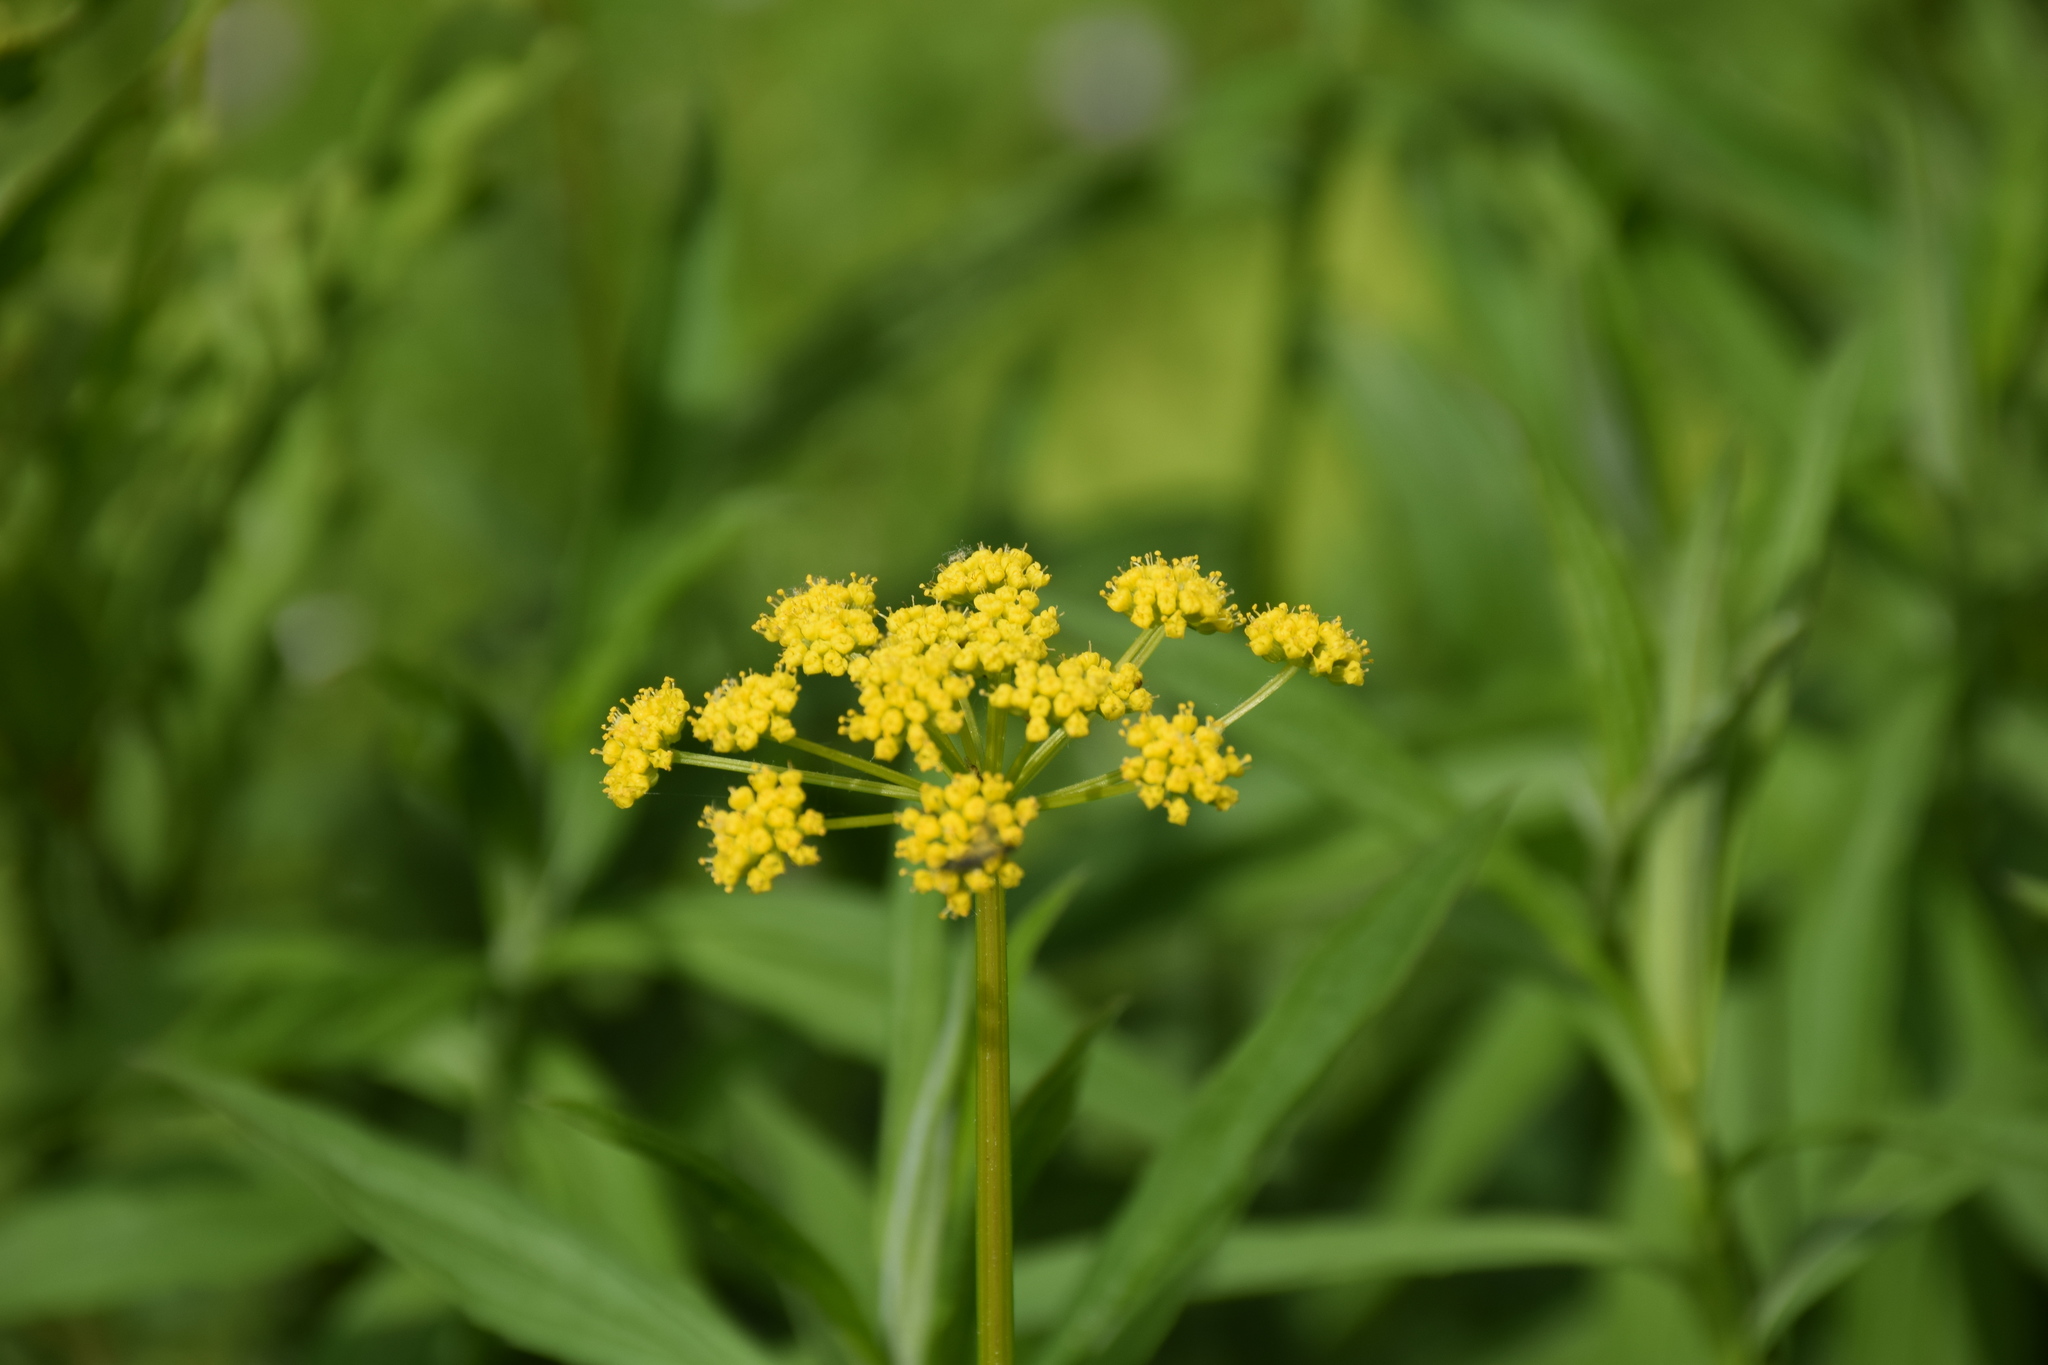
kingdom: Plantae
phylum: Tracheophyta
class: Magnoliopsida
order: Apiales
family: Apiaceae
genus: Zizia
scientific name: Zizia aurea
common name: Golden alexanders
